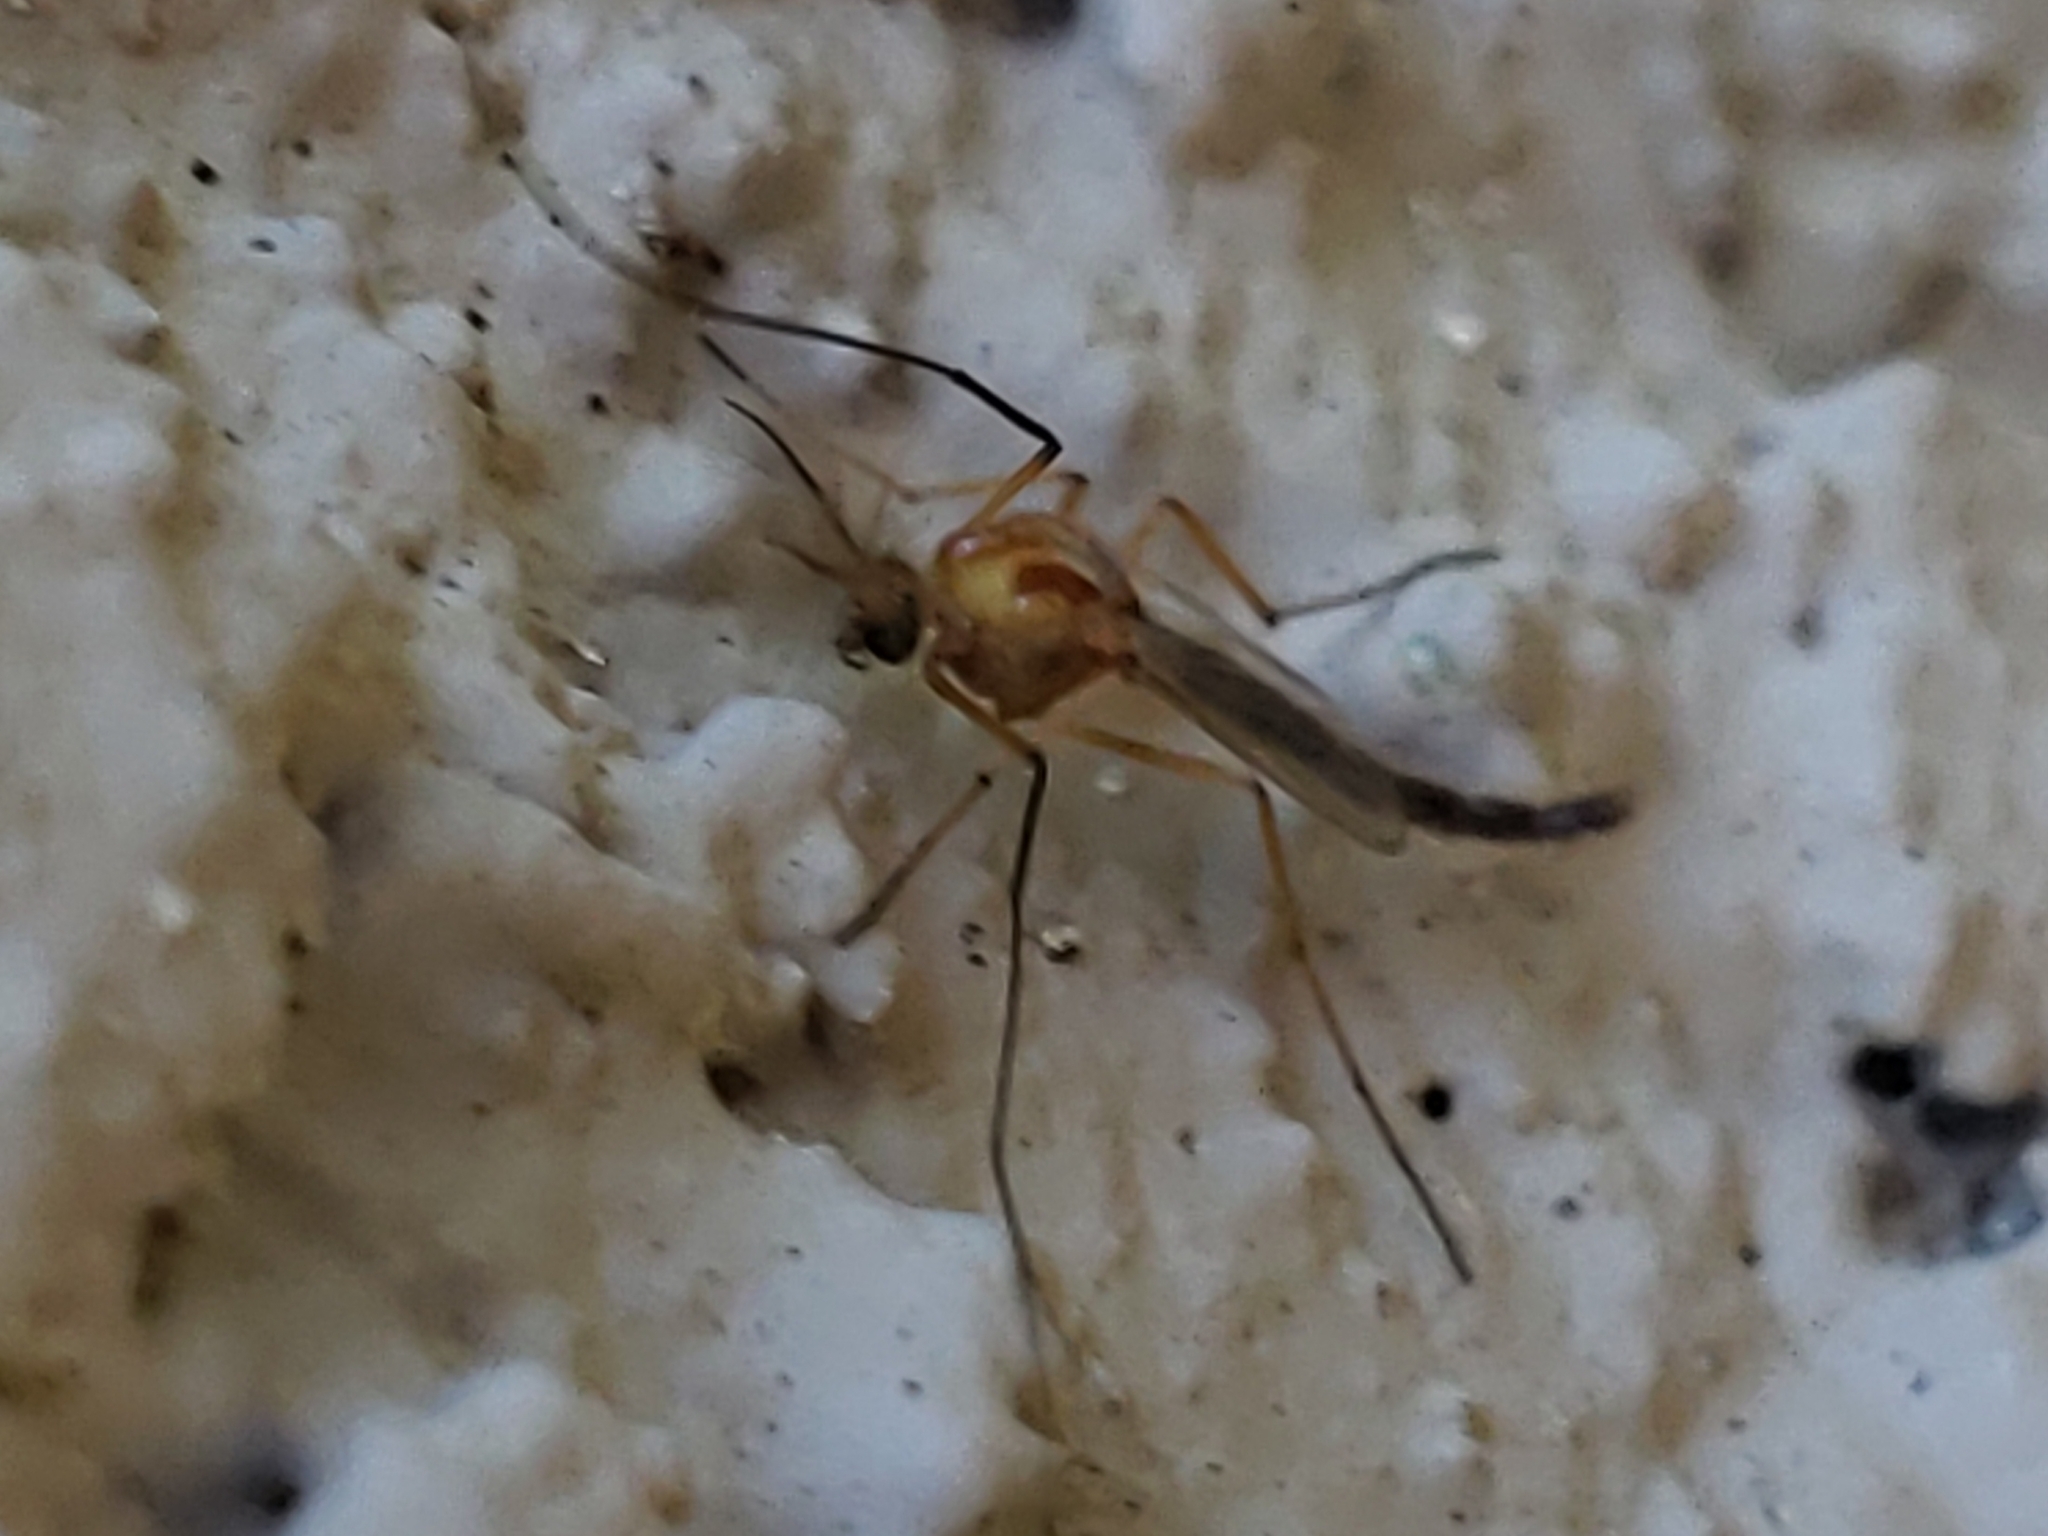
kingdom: Animalia
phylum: Arthropoda
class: Insecta
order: Diptera
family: Chironomidae
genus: Chironomus
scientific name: Chironomus ochreatus
